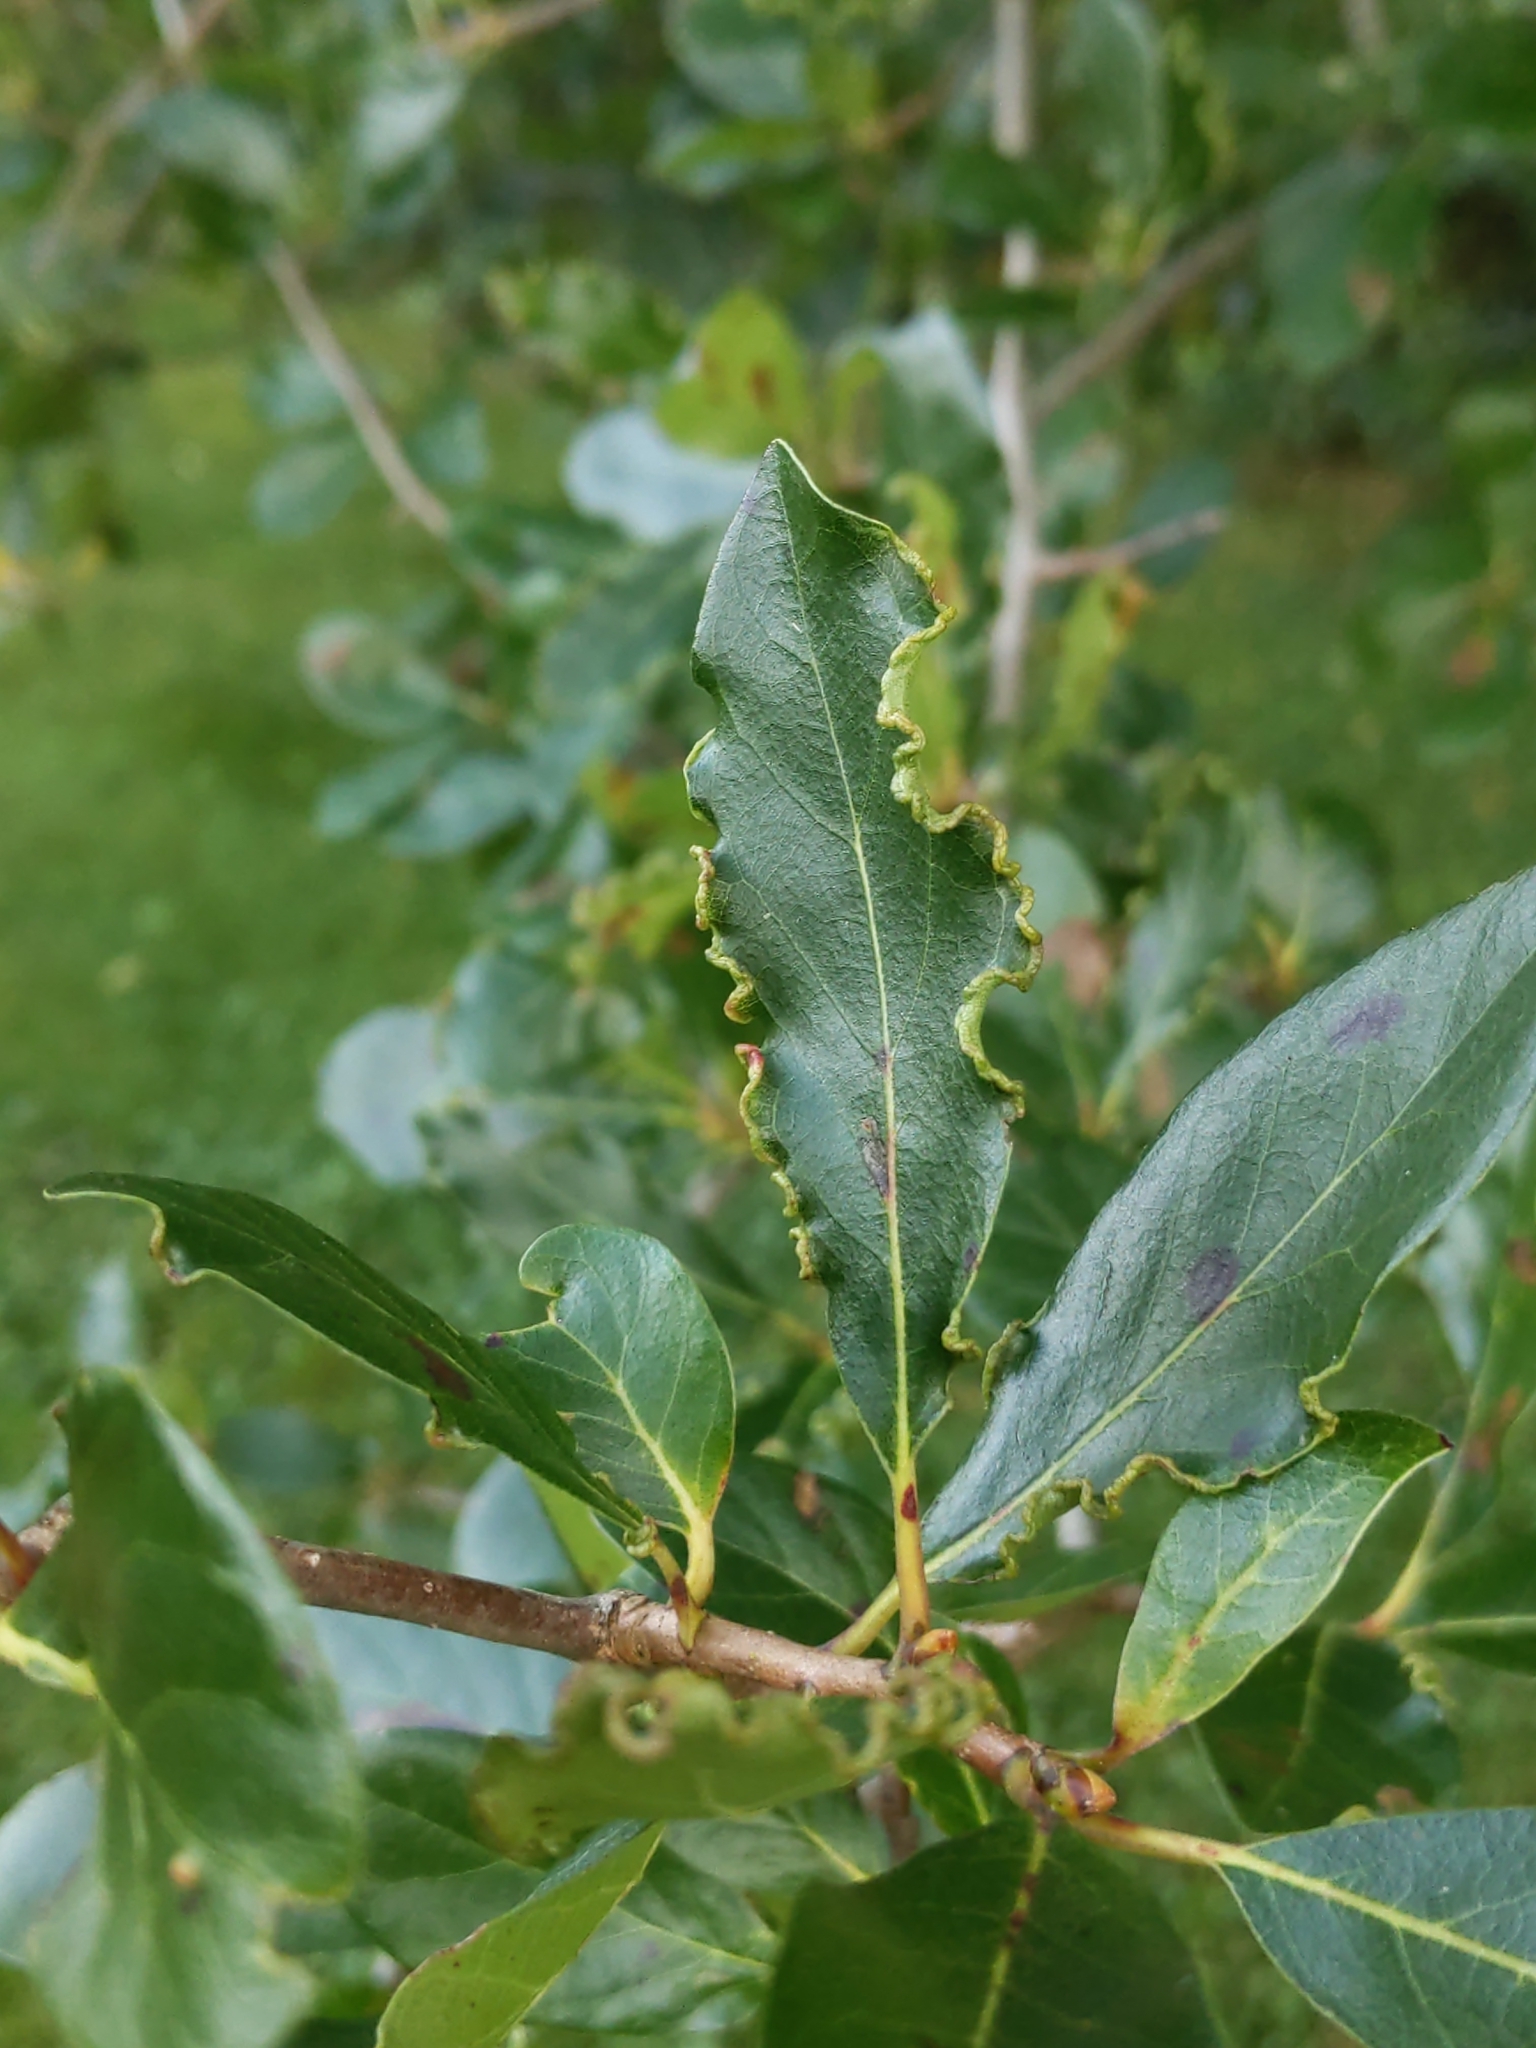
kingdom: Animalia
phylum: Arthropoda
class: Arachnida
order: Trombidiformes
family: Eriophyidae
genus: Aceria
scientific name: Aceria
